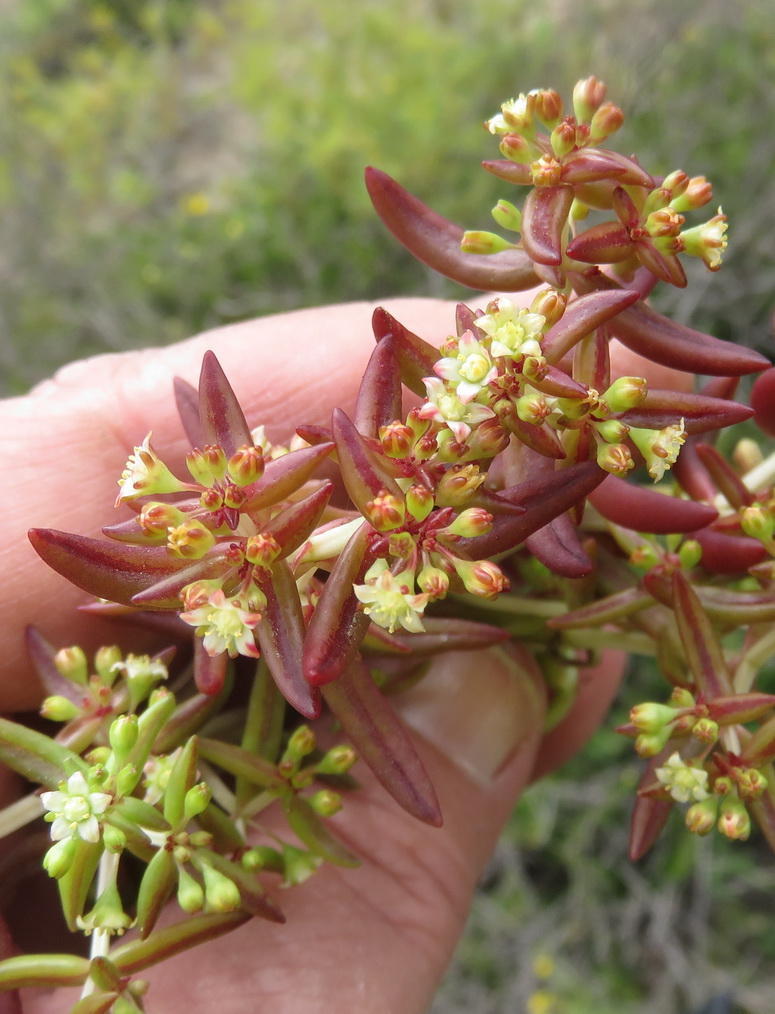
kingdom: Plantae
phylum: Tracheophyta
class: Magnoliopsida
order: Saxifragales
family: Crassulaceae
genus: Crassula
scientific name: Crassula expansa
